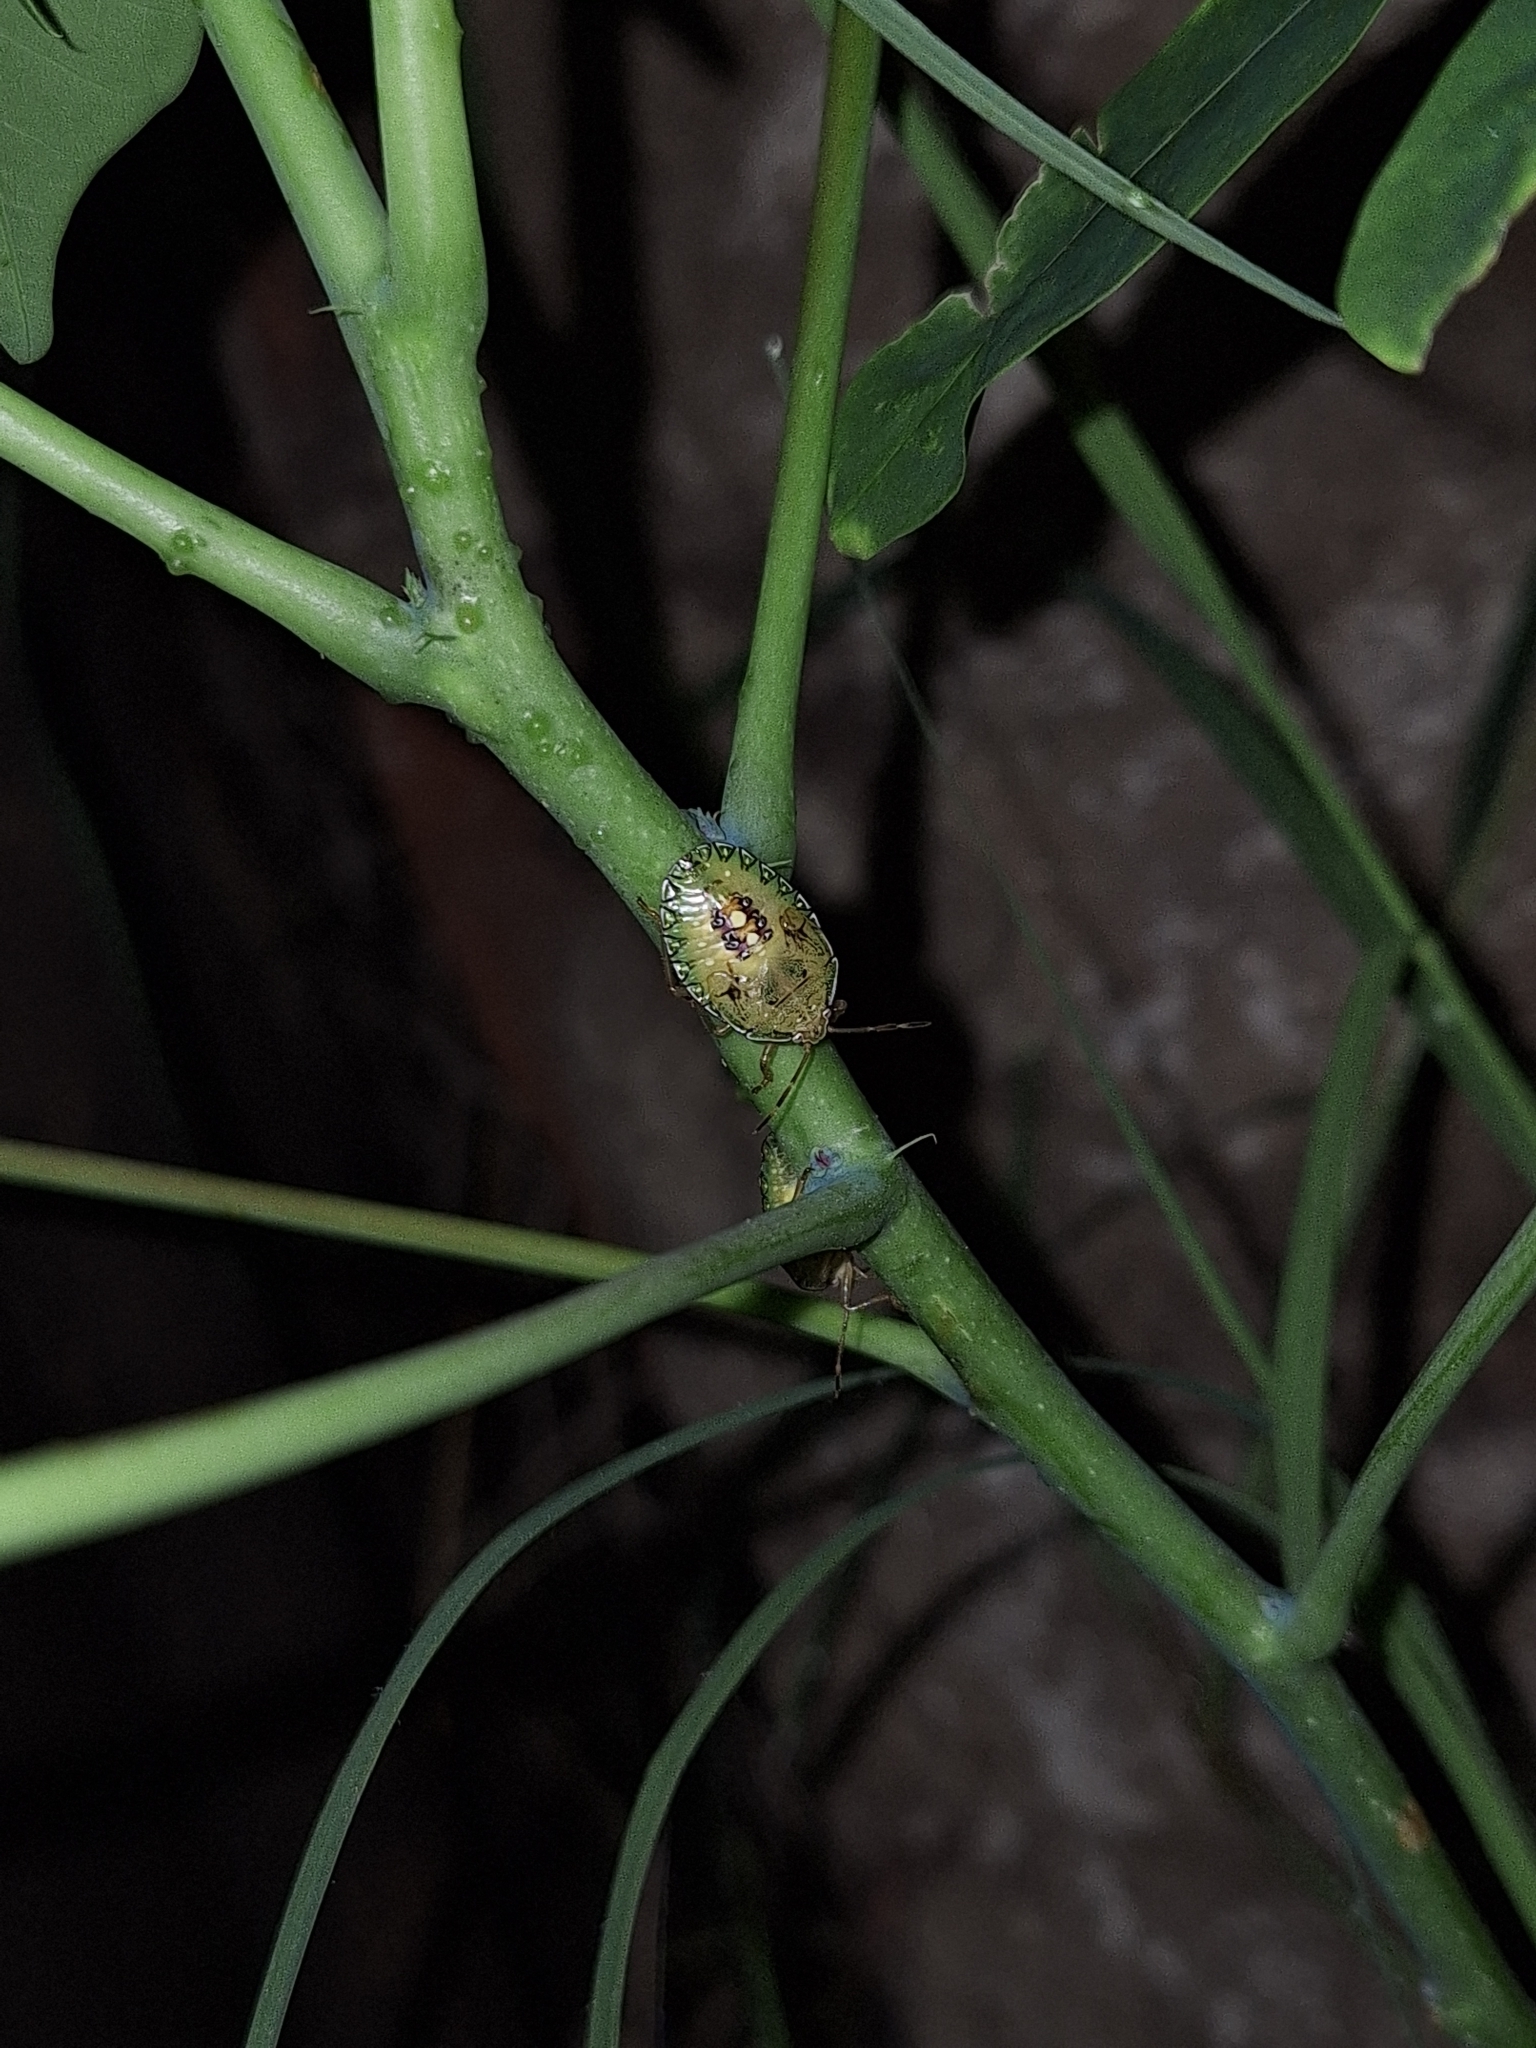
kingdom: Animalia
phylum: Arthropoda
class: Insecta
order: Hemiptera
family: Pentatomidae
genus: Edessa
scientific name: Edessa meditabunda
